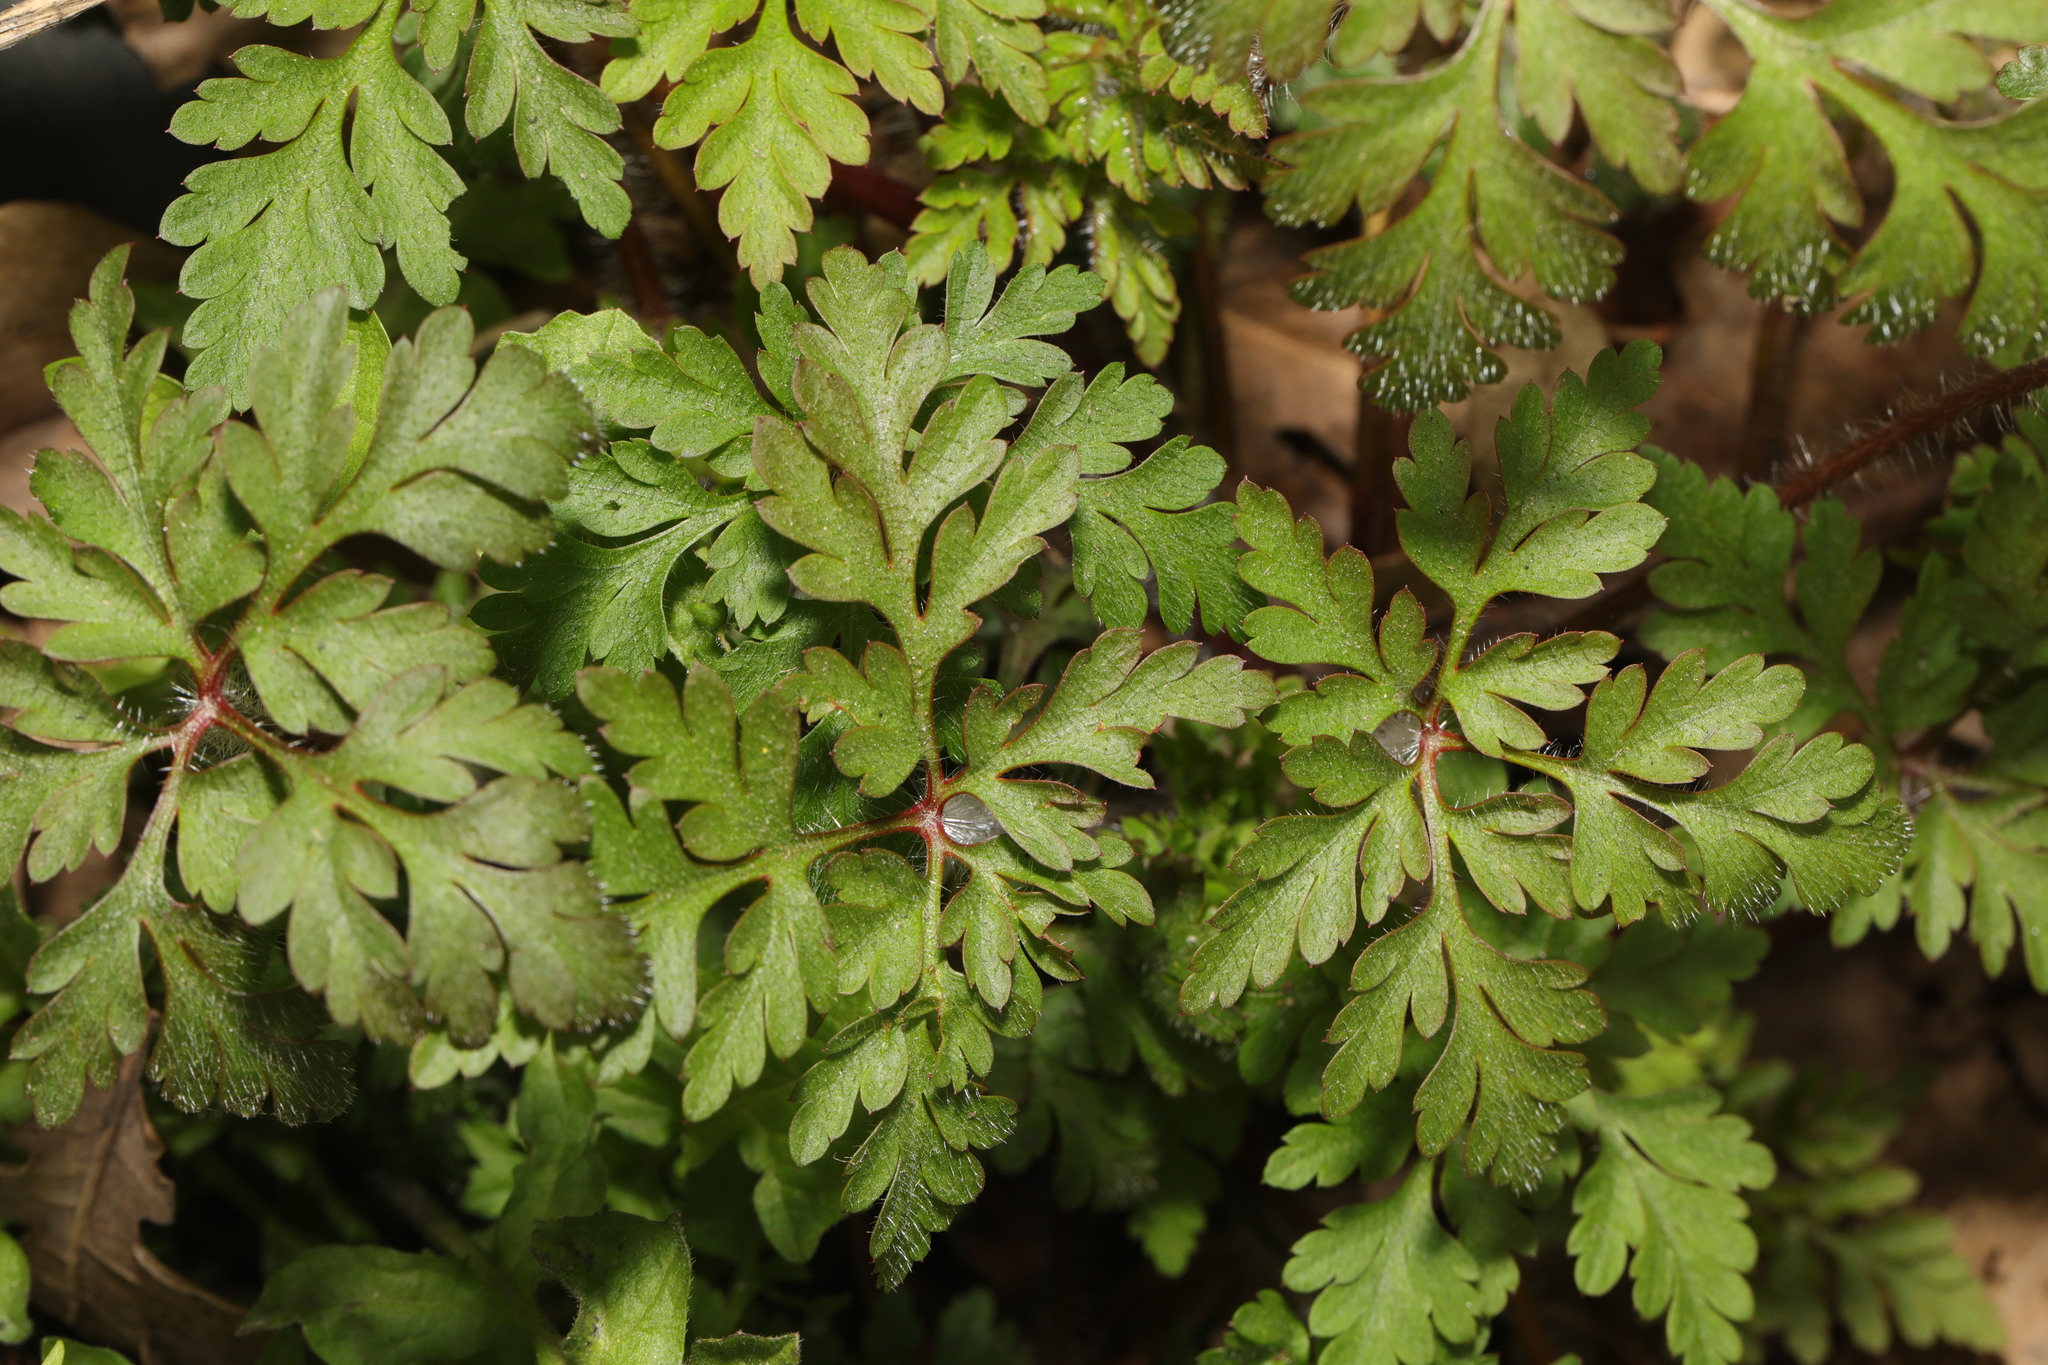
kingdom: Plantae
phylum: Tracheophyta
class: Magnoliopsida
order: Geraniales
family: Geraniaceae
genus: Geranium
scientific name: Geranium robertianum
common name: Herb-robert
